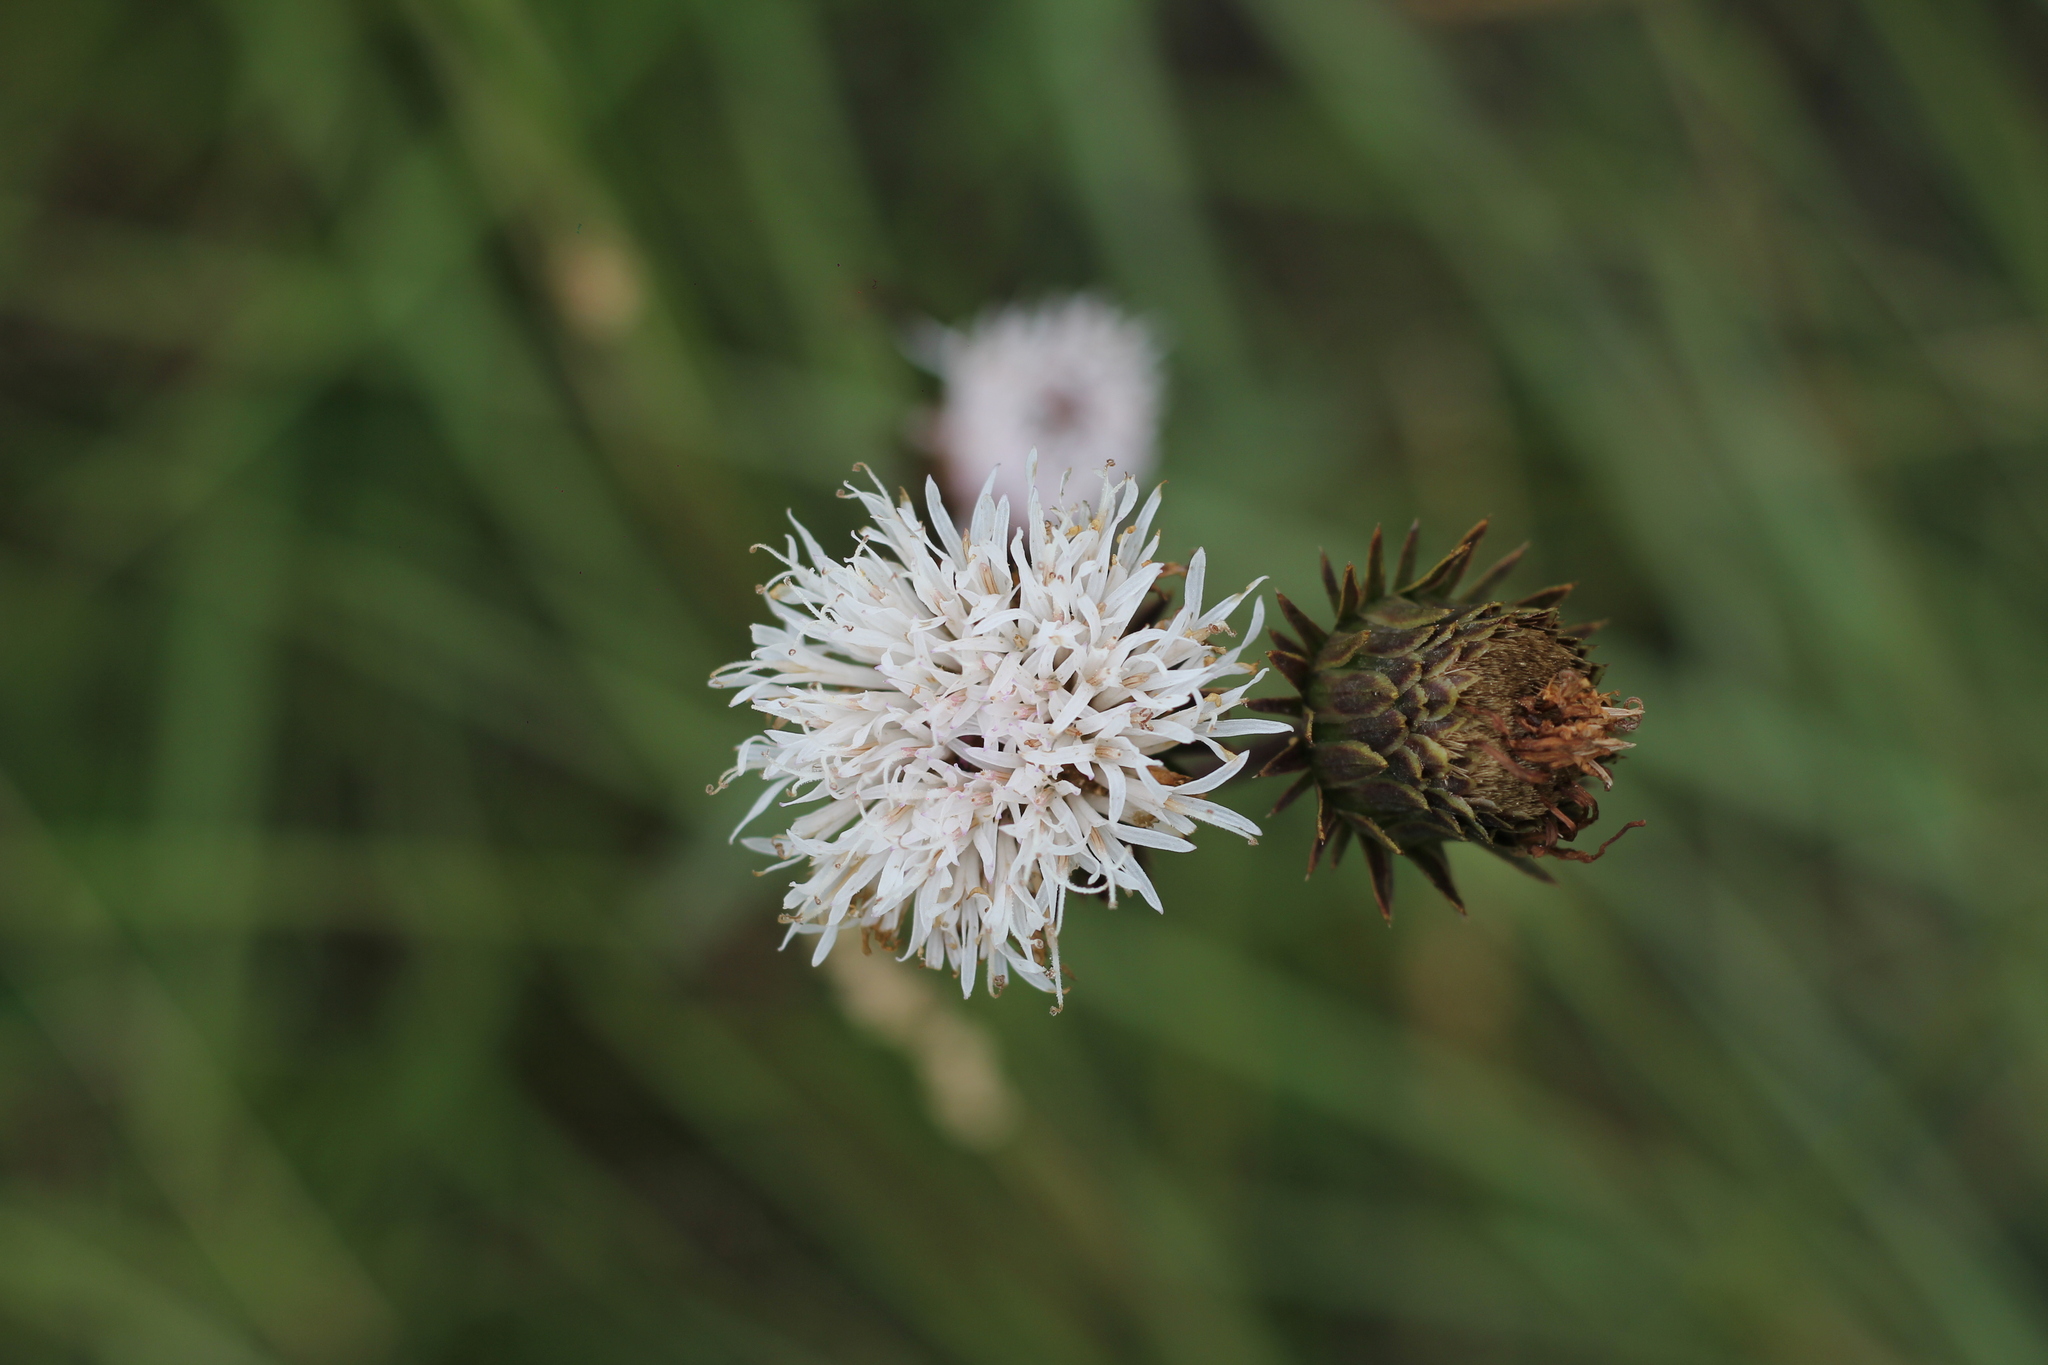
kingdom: Plantae
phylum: Tracheophyta
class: Magnoliopsida
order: Asterales
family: Asteraceae
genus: Lessingianthus
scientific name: Lessingianthus sellowii
